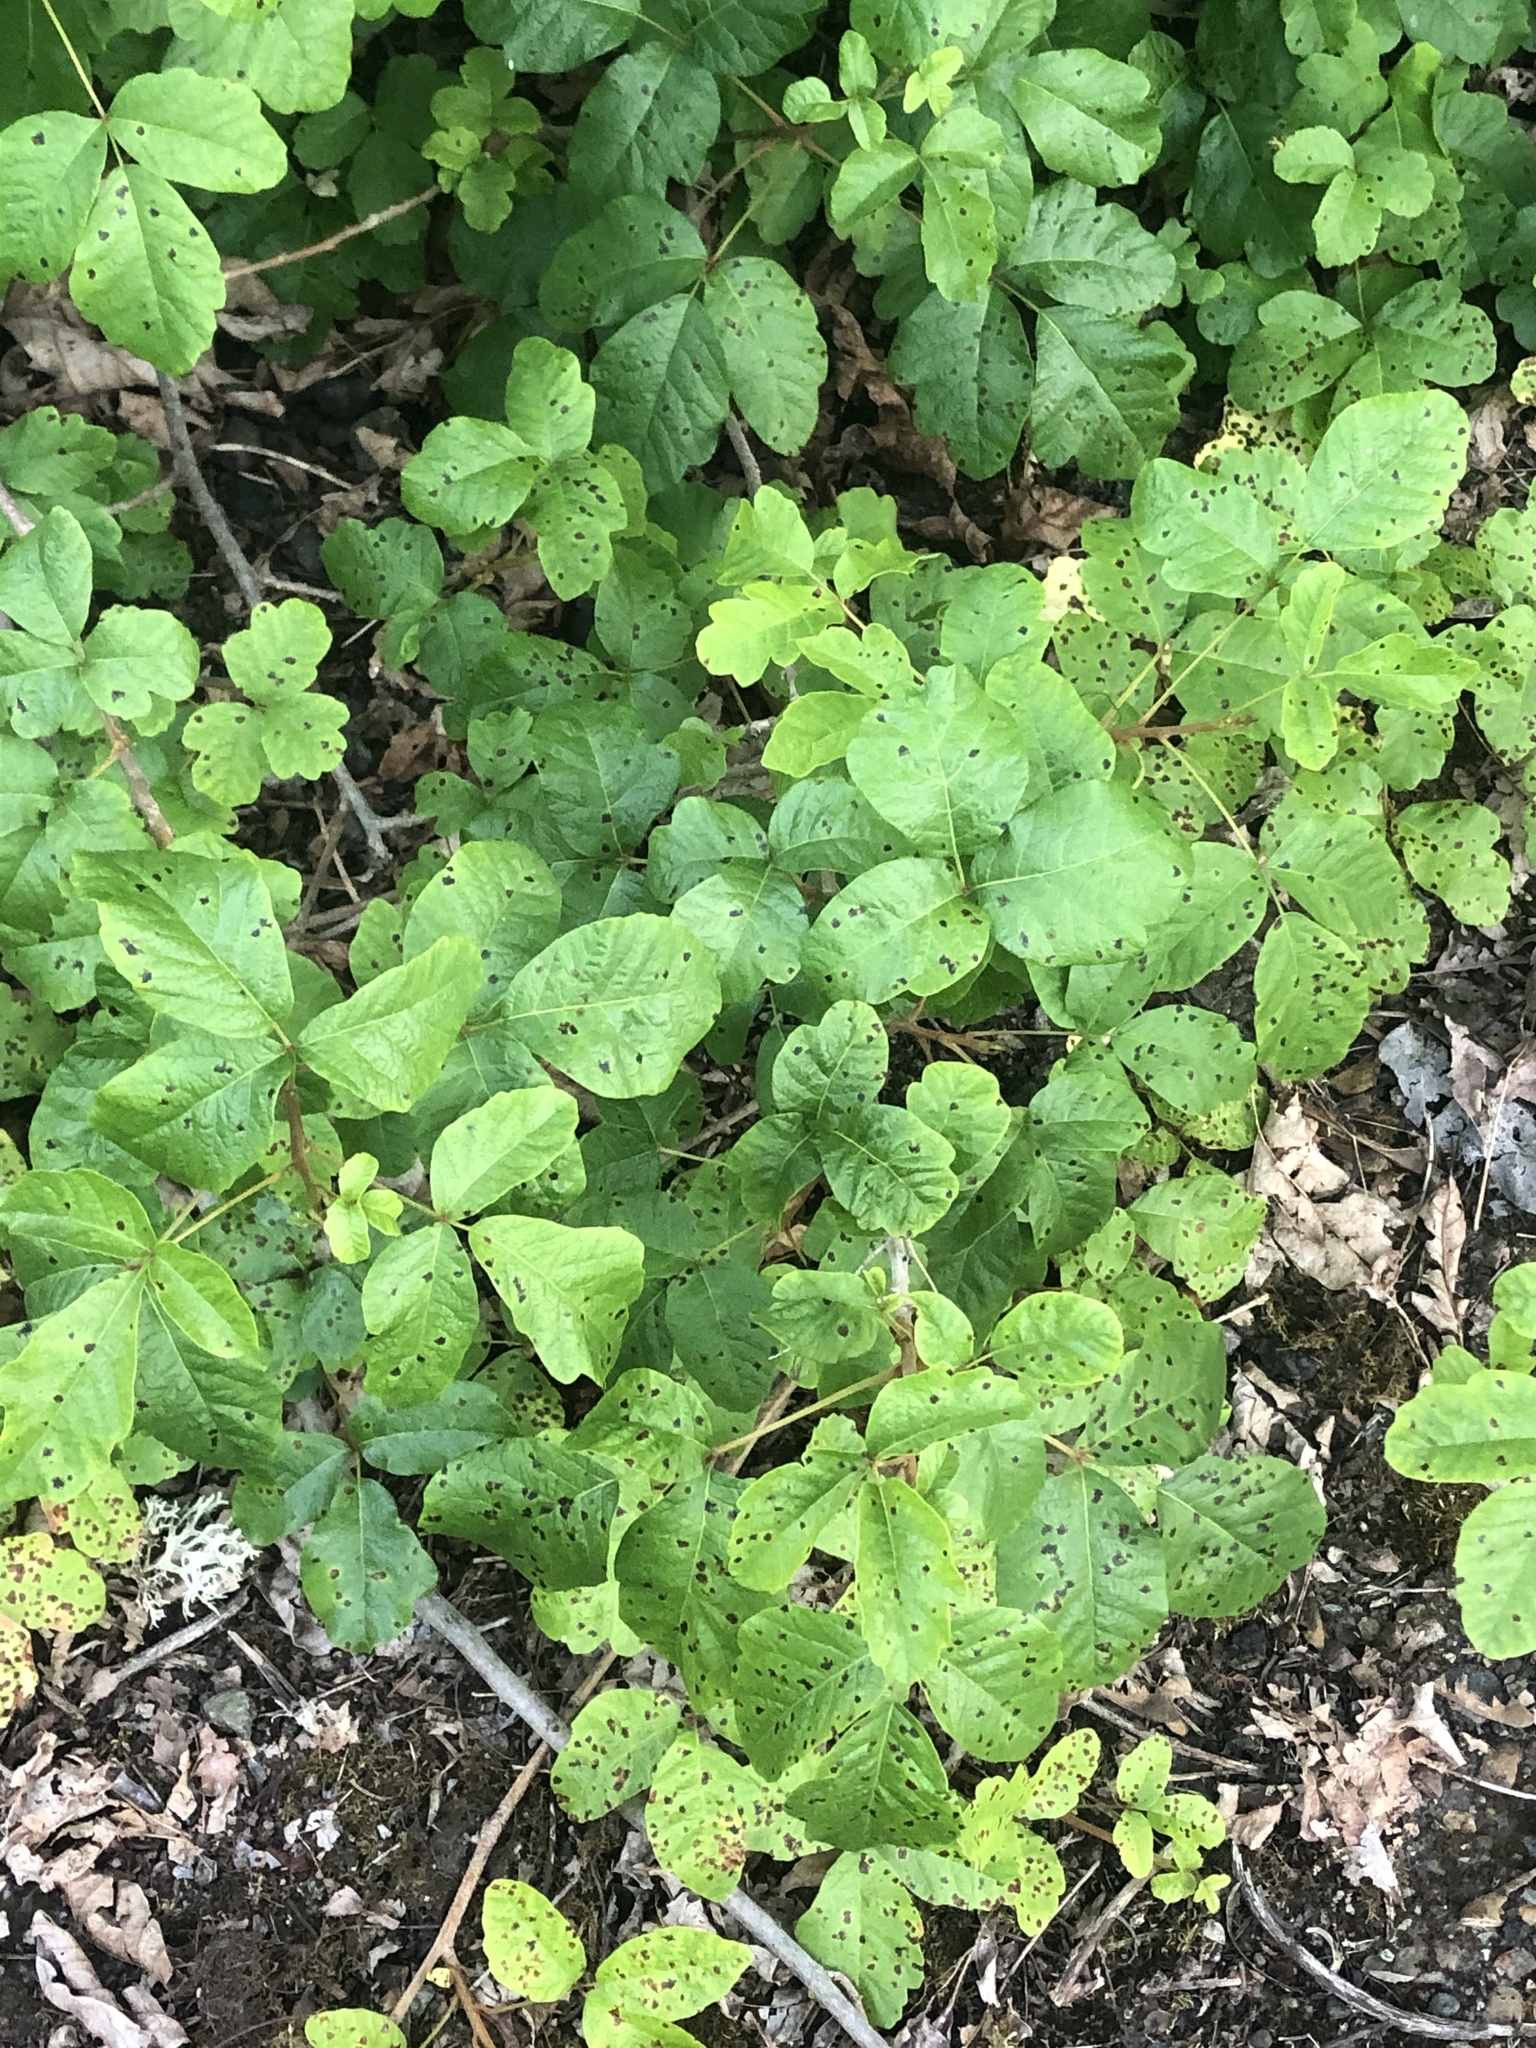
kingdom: Plantae
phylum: Tracheophyta
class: Magnoliopsida
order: Sapindales
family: Anacardiaceae
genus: Toxicodendron
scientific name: Toxicodendron diversilobum
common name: Pacific poison-oak
